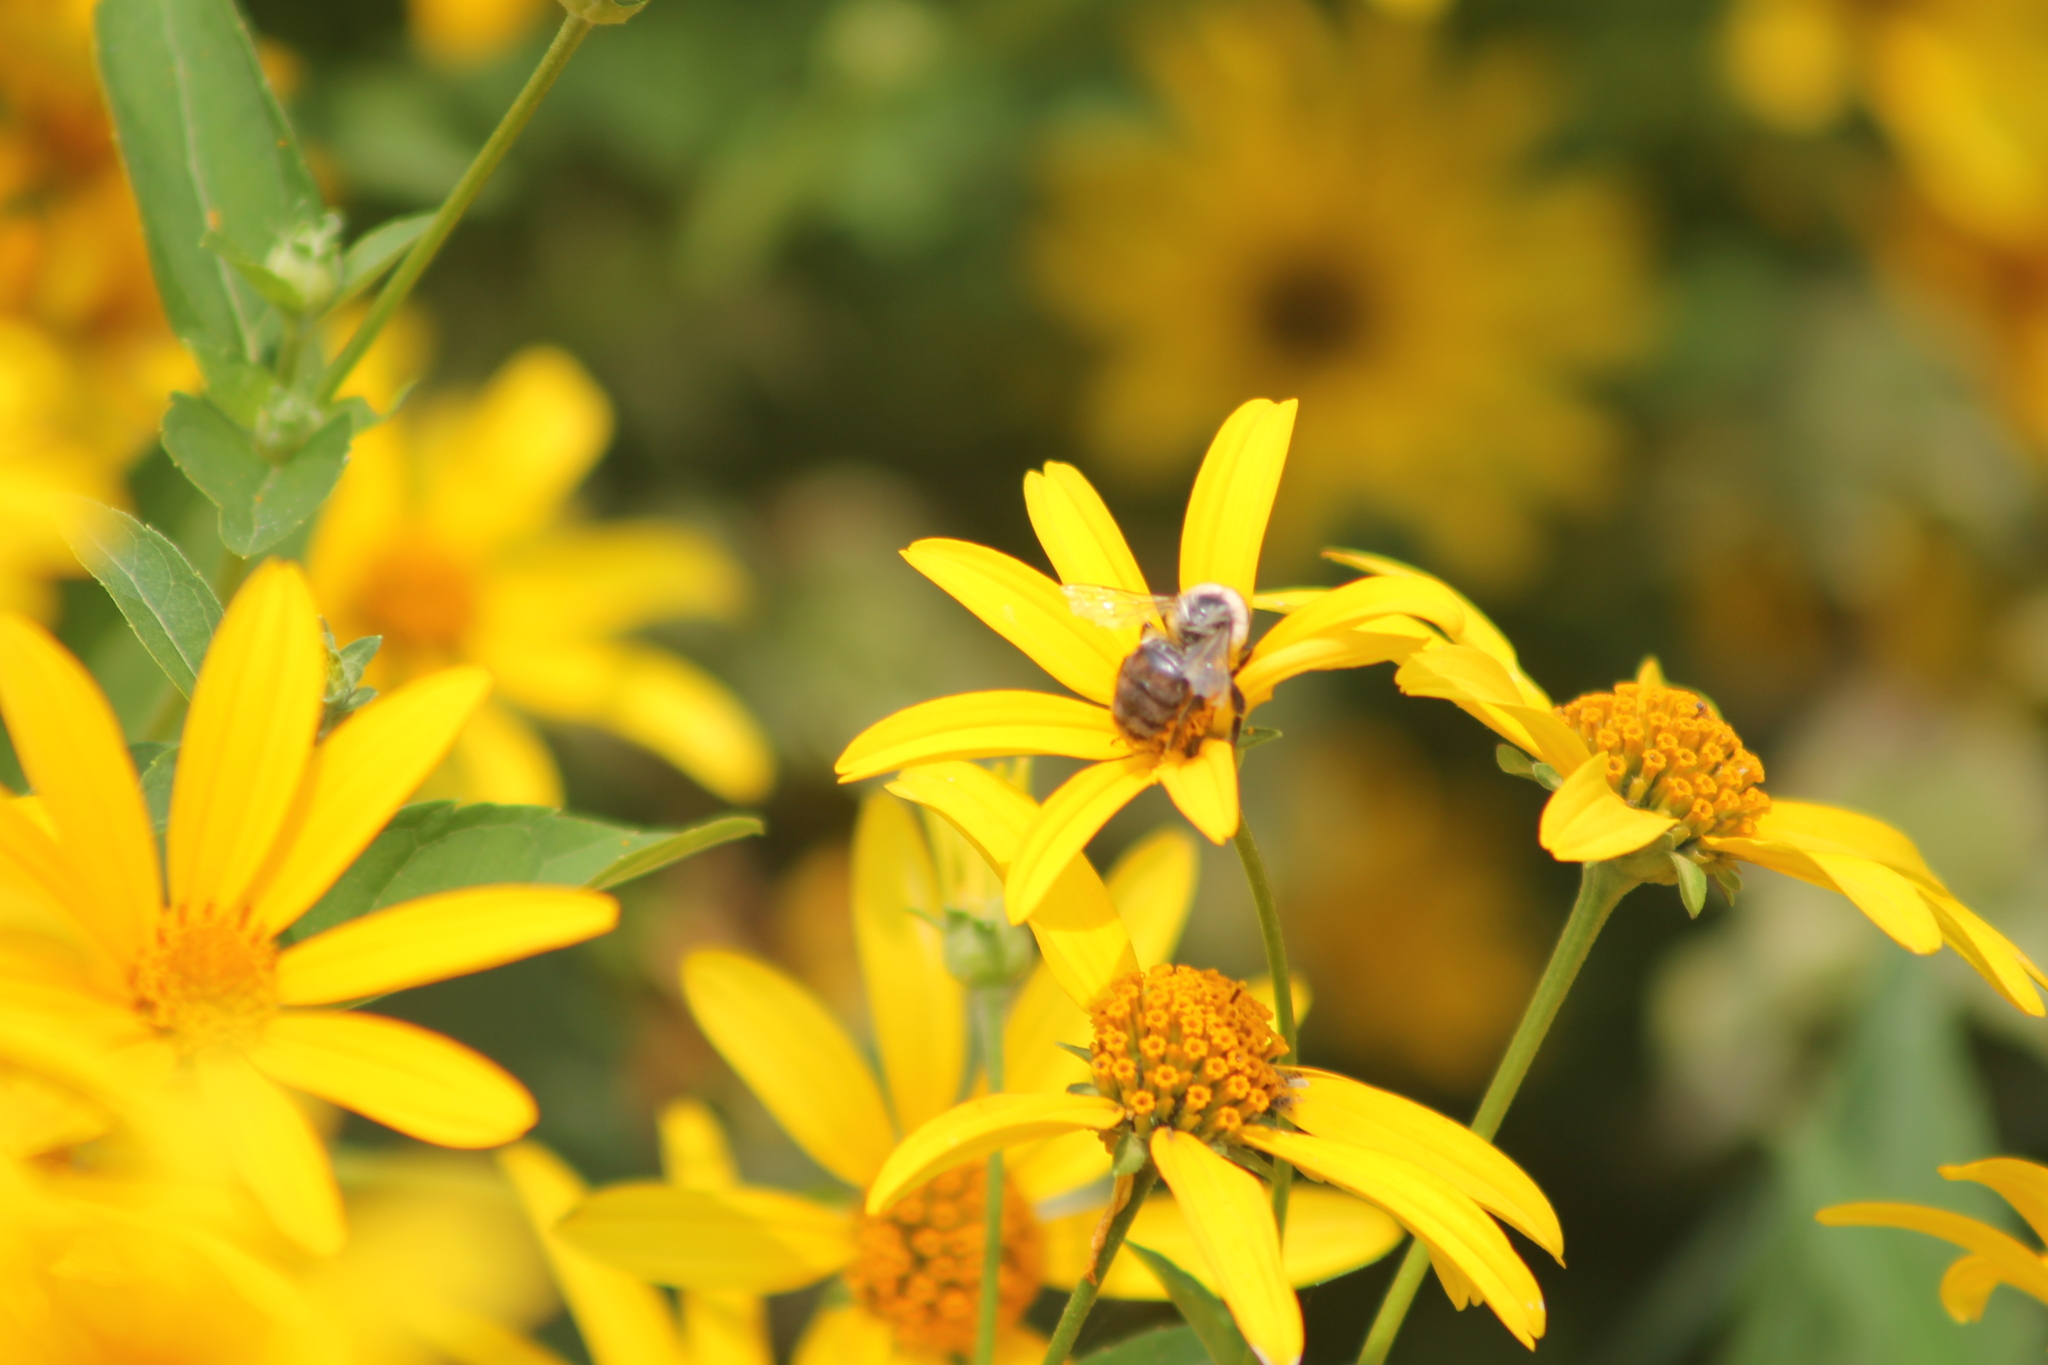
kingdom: Animalia
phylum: Arthropoda
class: Insecta
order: Hymenoptera
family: Apidae
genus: Bombus
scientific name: Bombus impatiens
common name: Common eastern bumble bee
